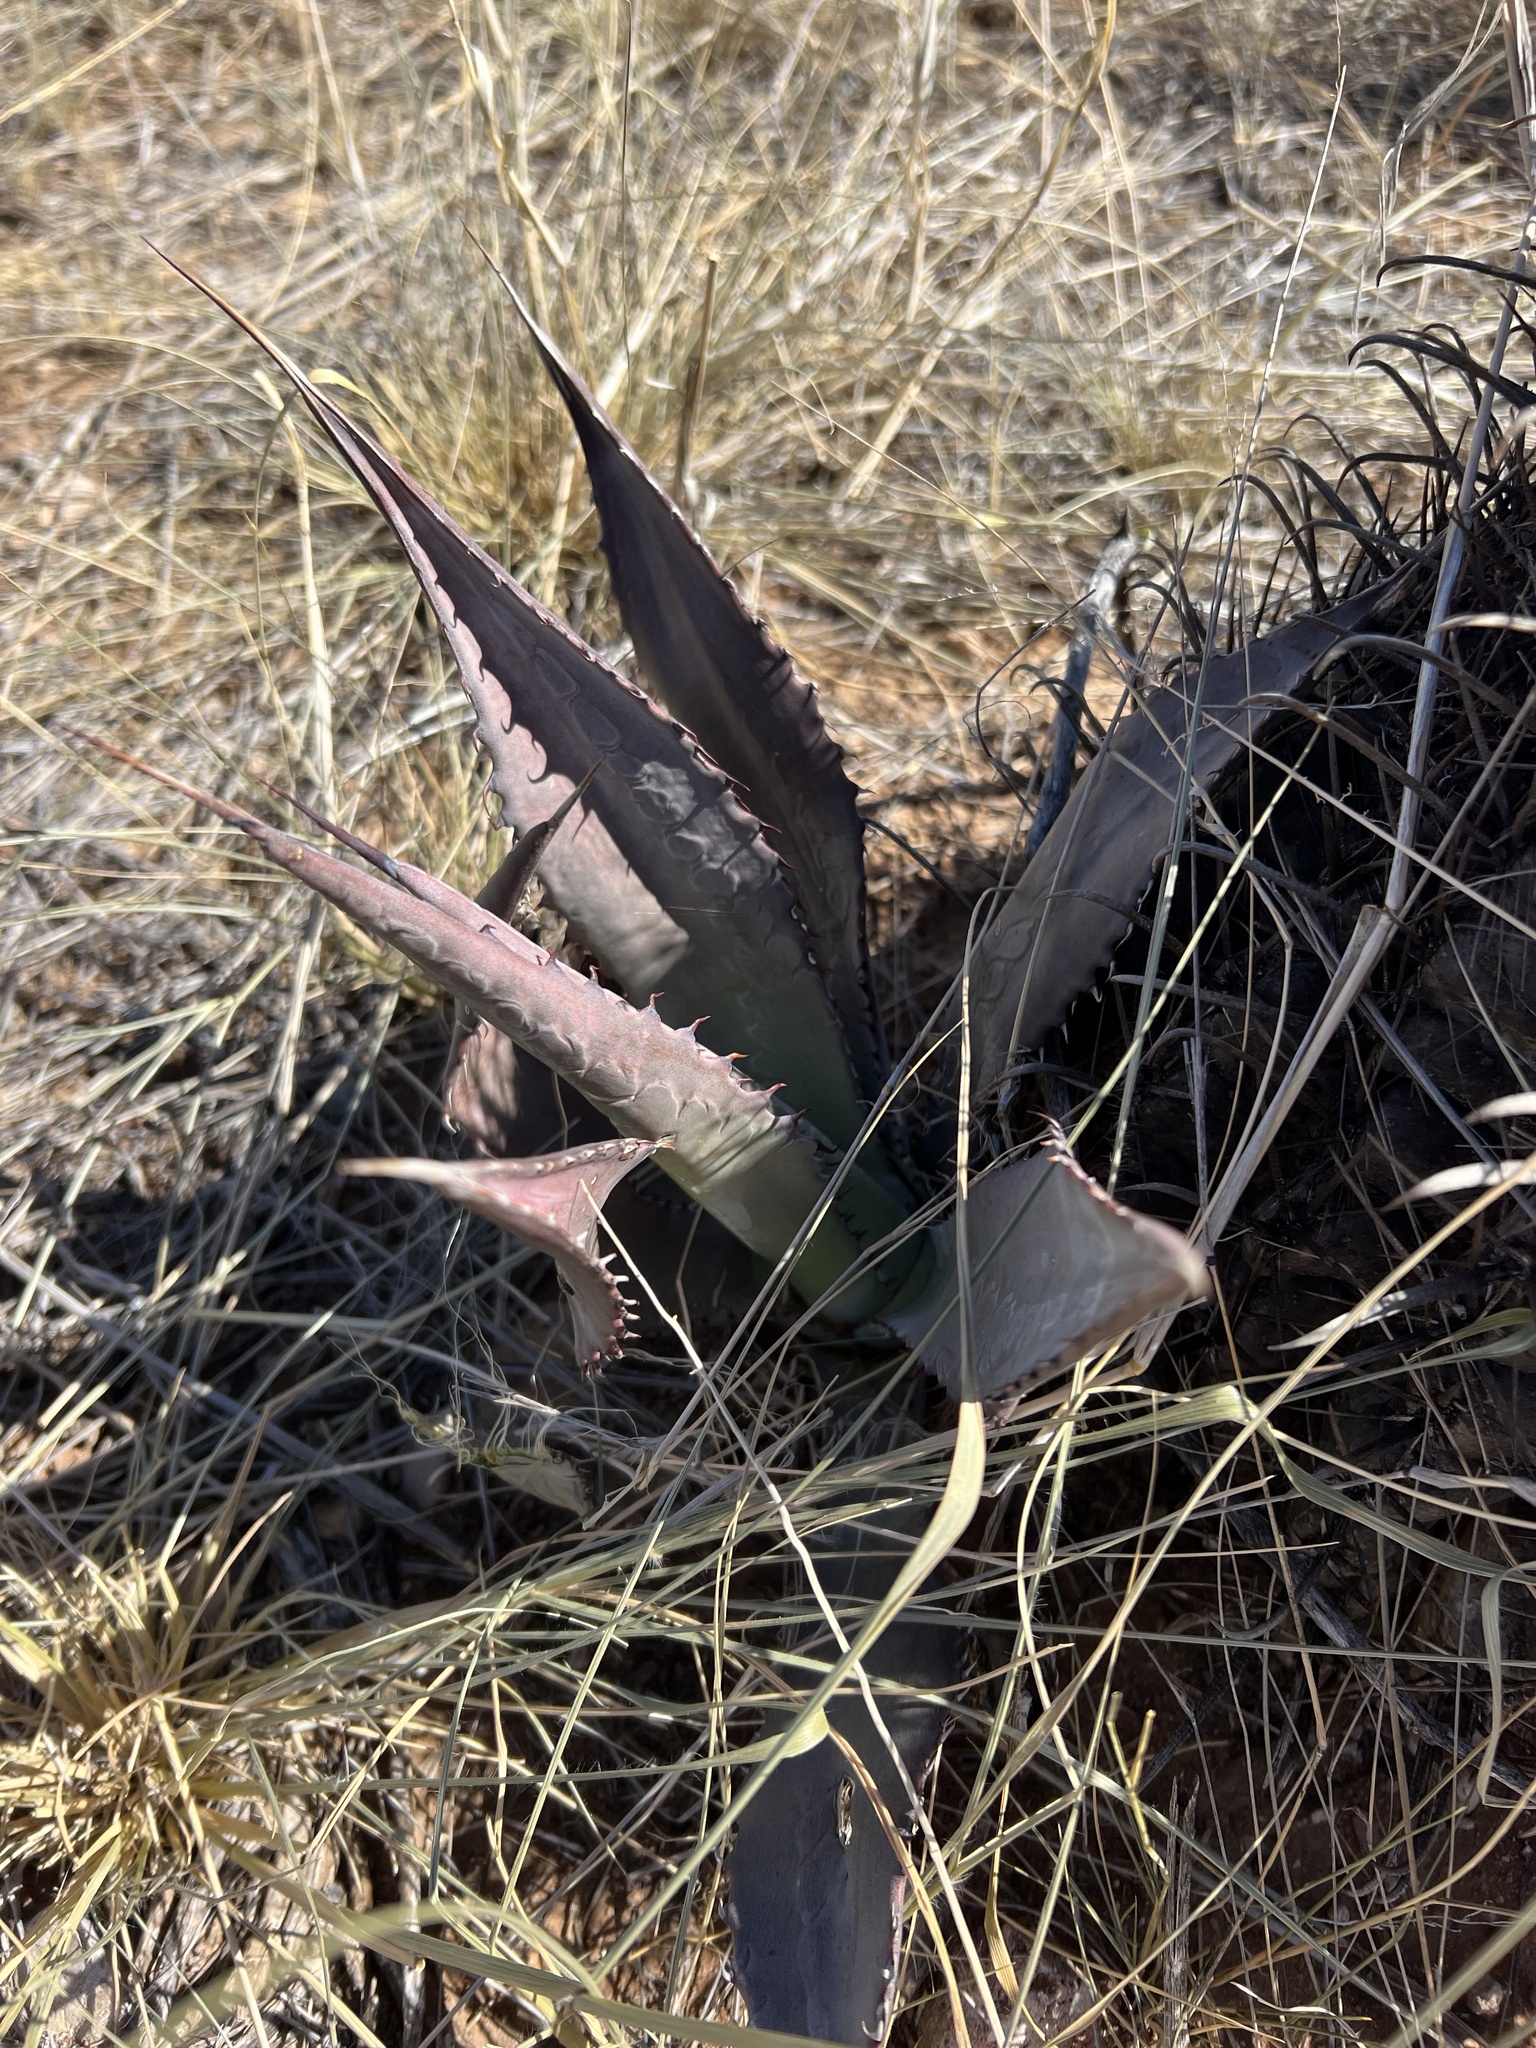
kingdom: Plantae
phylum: Tracheophyta
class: Liliopsida
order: Asparagales
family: Asparagaceae
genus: Agave
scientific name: Agave palmeri
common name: Palmer agave
